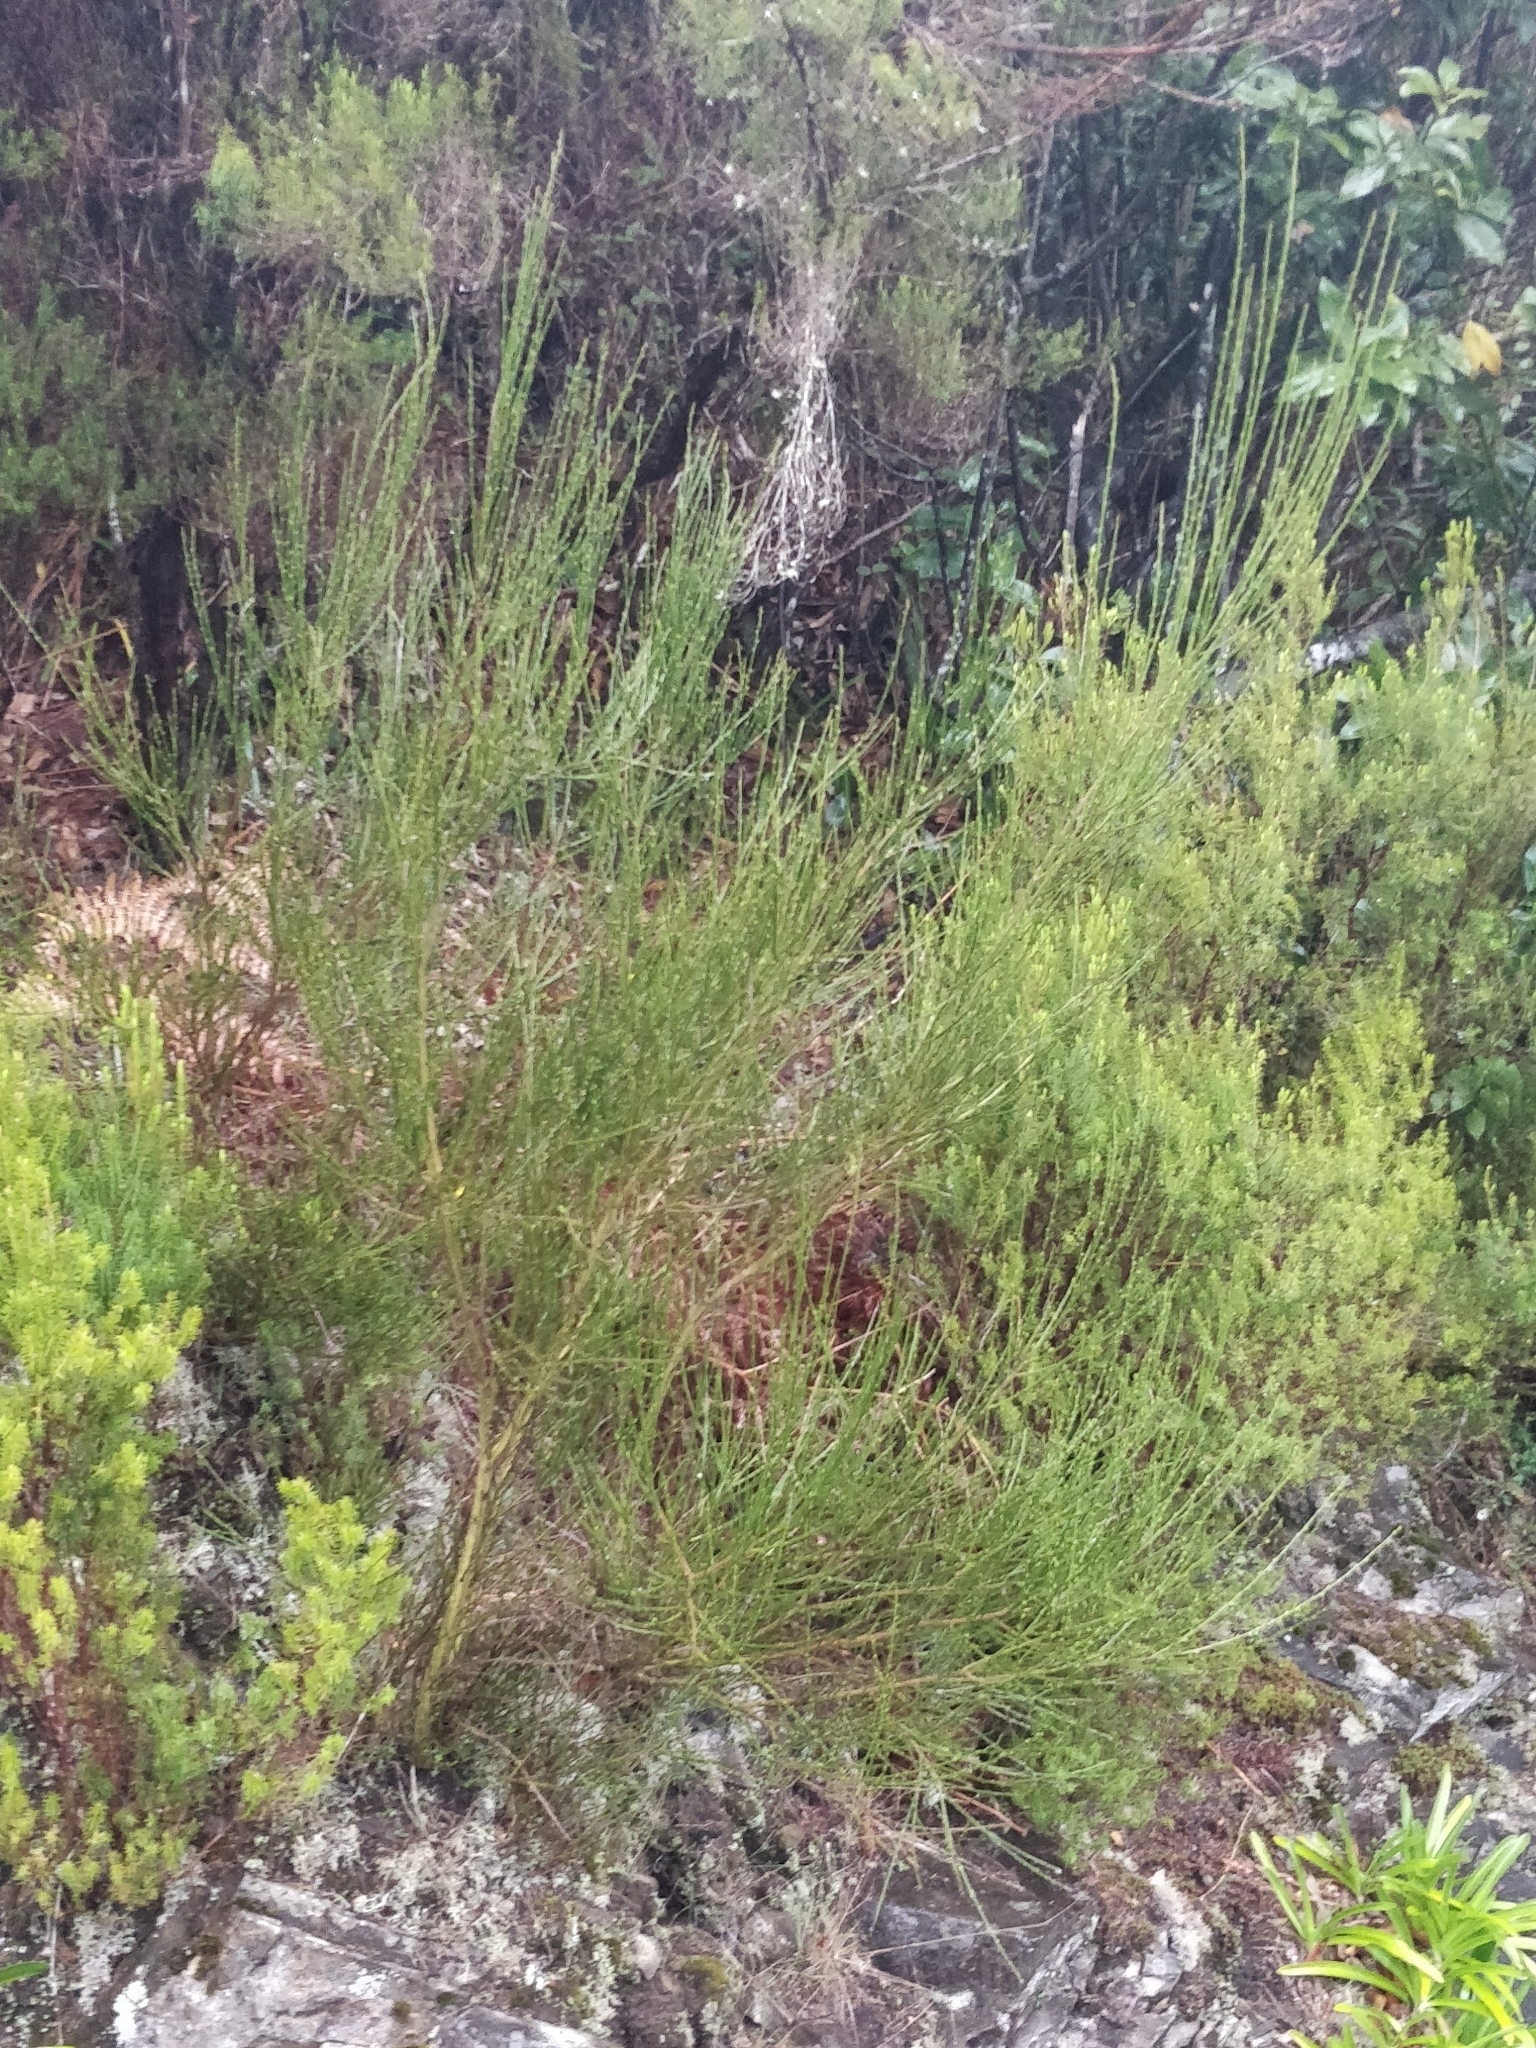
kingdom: Plantae
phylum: Tracheophyta
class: Magnoliopsida
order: Fabales
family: Fabaceae
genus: Cytisus
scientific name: Cytisus scoparius
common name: Scotch broom
